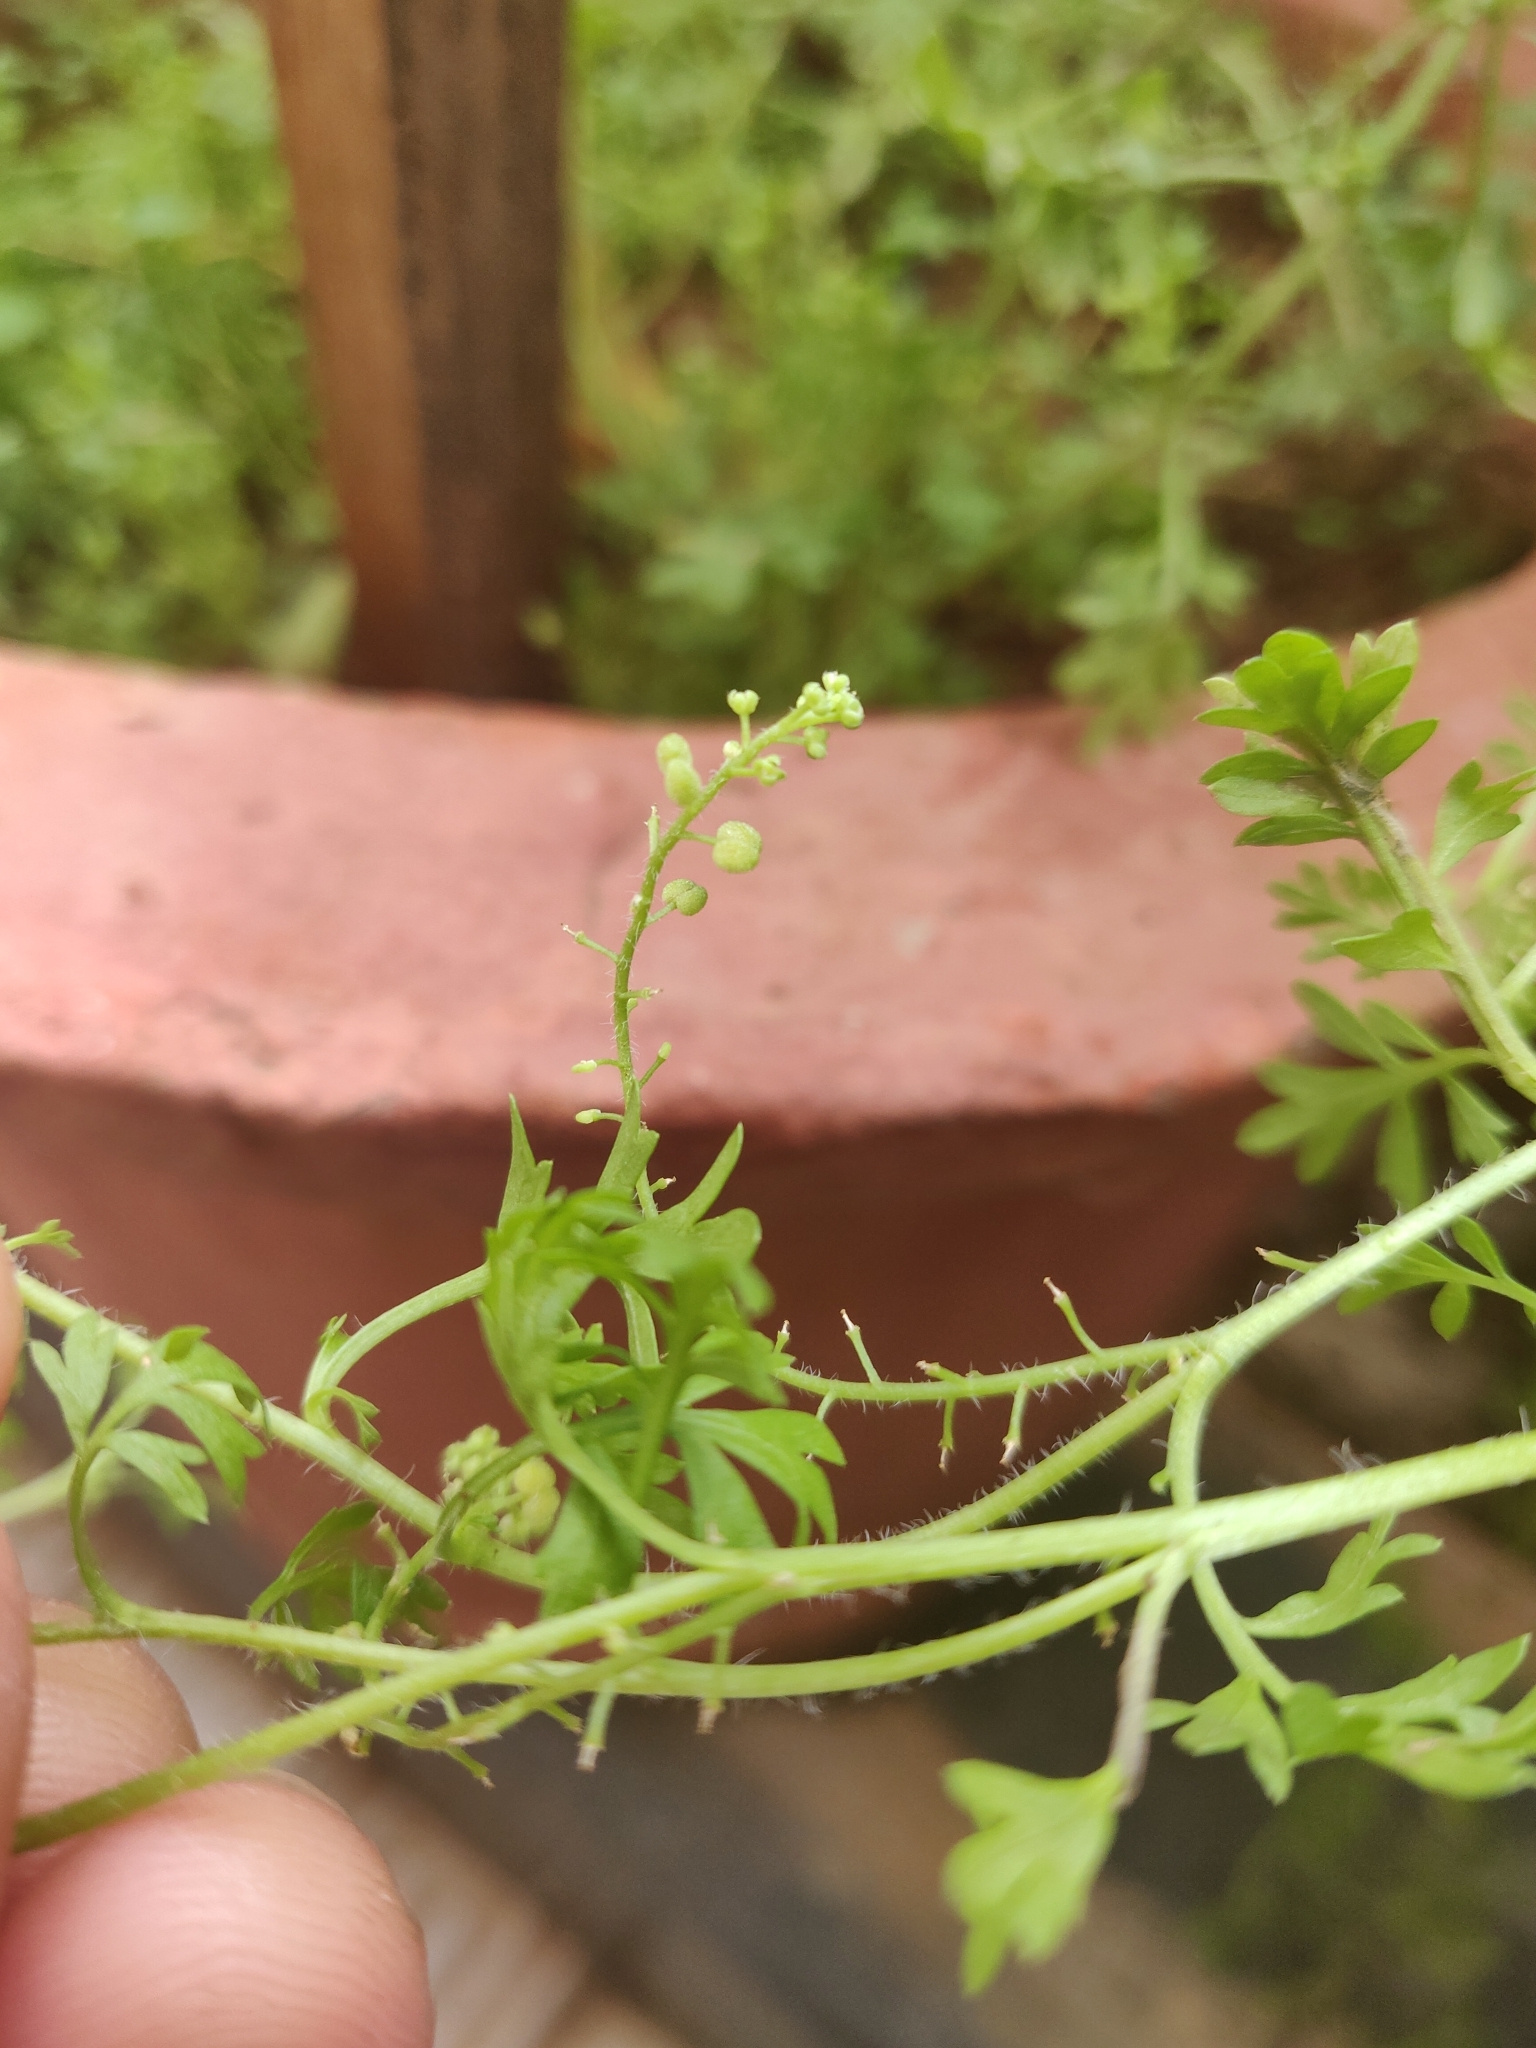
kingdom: Plantae
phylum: Tracheophyta
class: Magnoliopsida
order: Brassicales
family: Brassicaceae
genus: Lepidium
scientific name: Lepidium didymum
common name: Lesser swinecress
